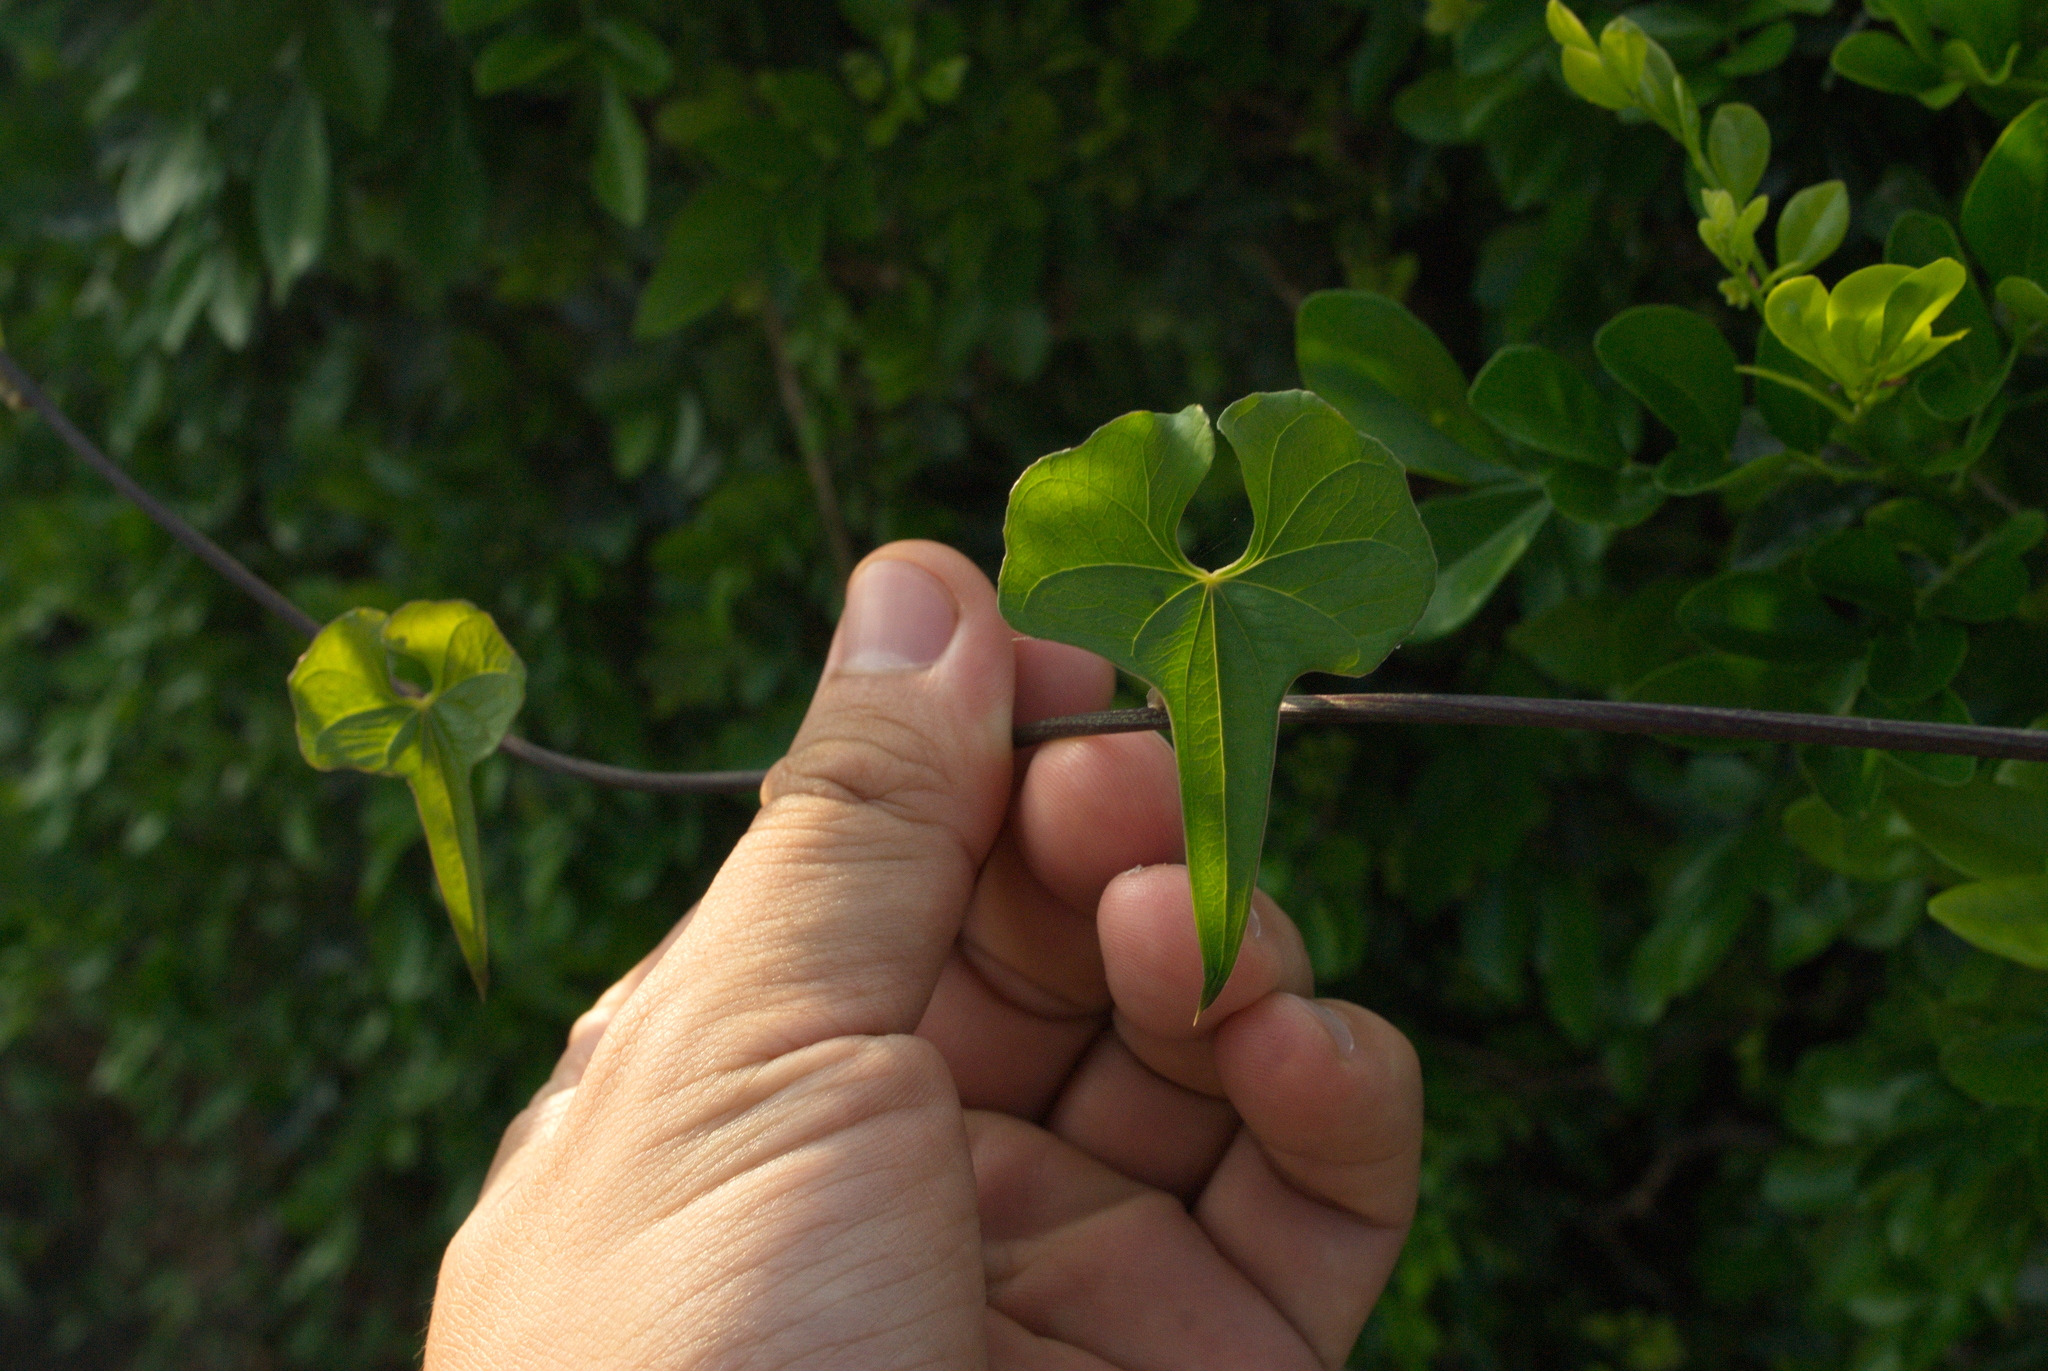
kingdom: Plantae
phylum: Tracheophyta
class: Liliopsida
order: Dioscoreales
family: Dioscoreaceae
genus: Dioscorea
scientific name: Dioscorea polystachya
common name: Chinese yam
